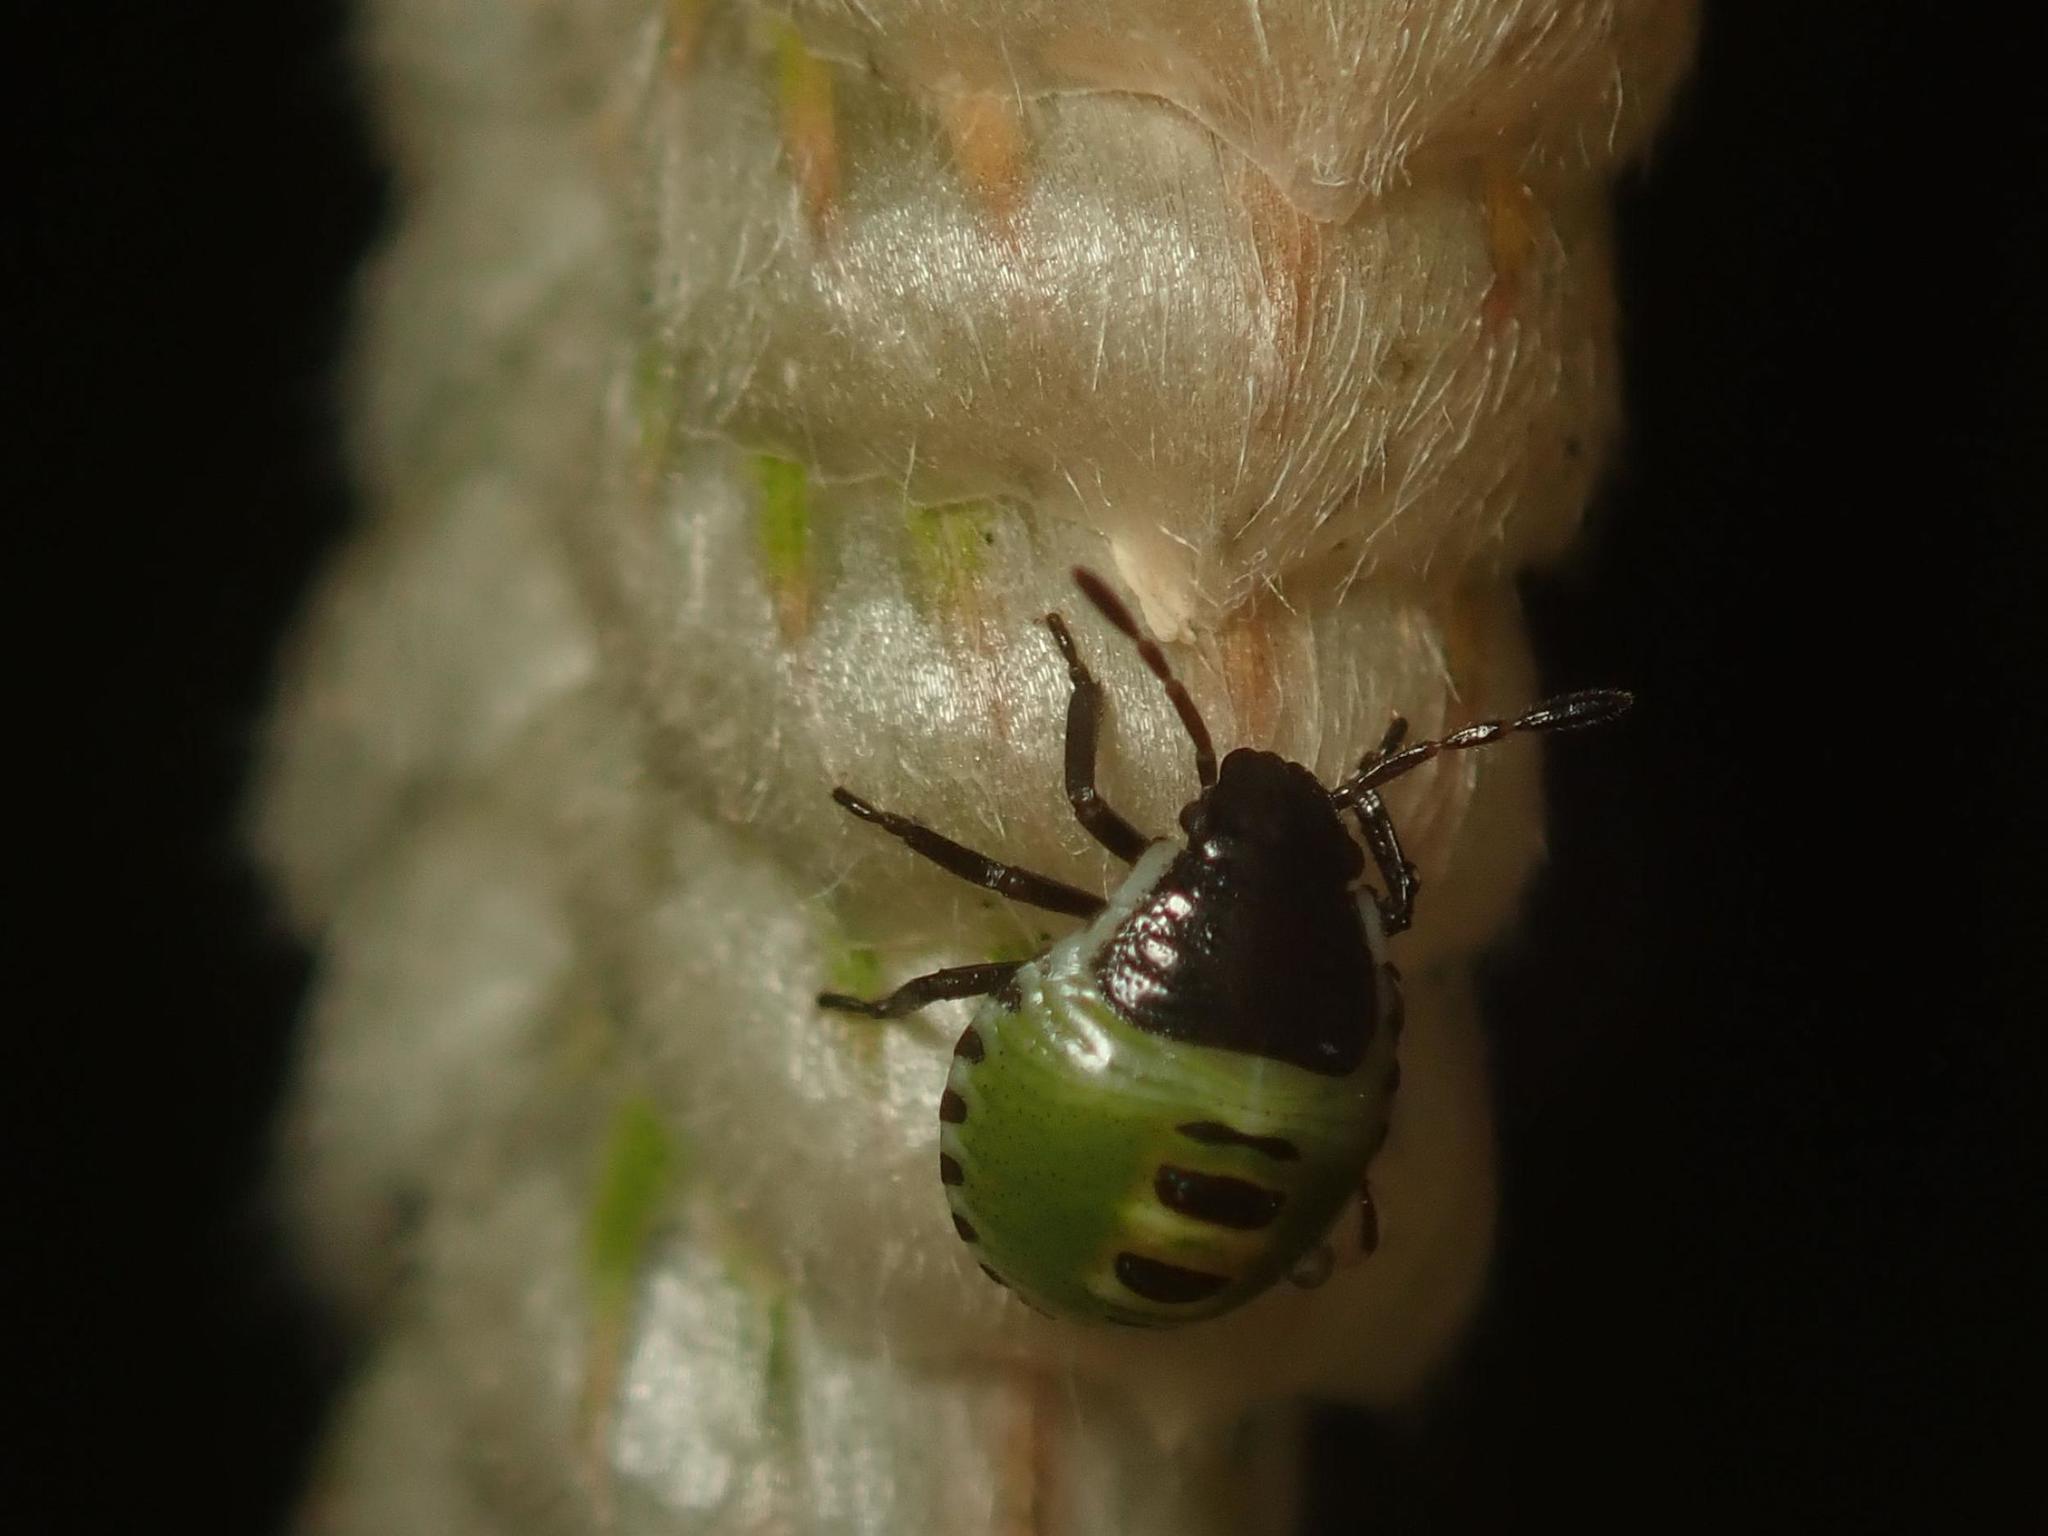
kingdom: Animalia
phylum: Arthropoda
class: Insecta
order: Hemiptera
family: Pentatomidae
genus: Palomena
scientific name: Palomena prasina
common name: Green shieldbug
